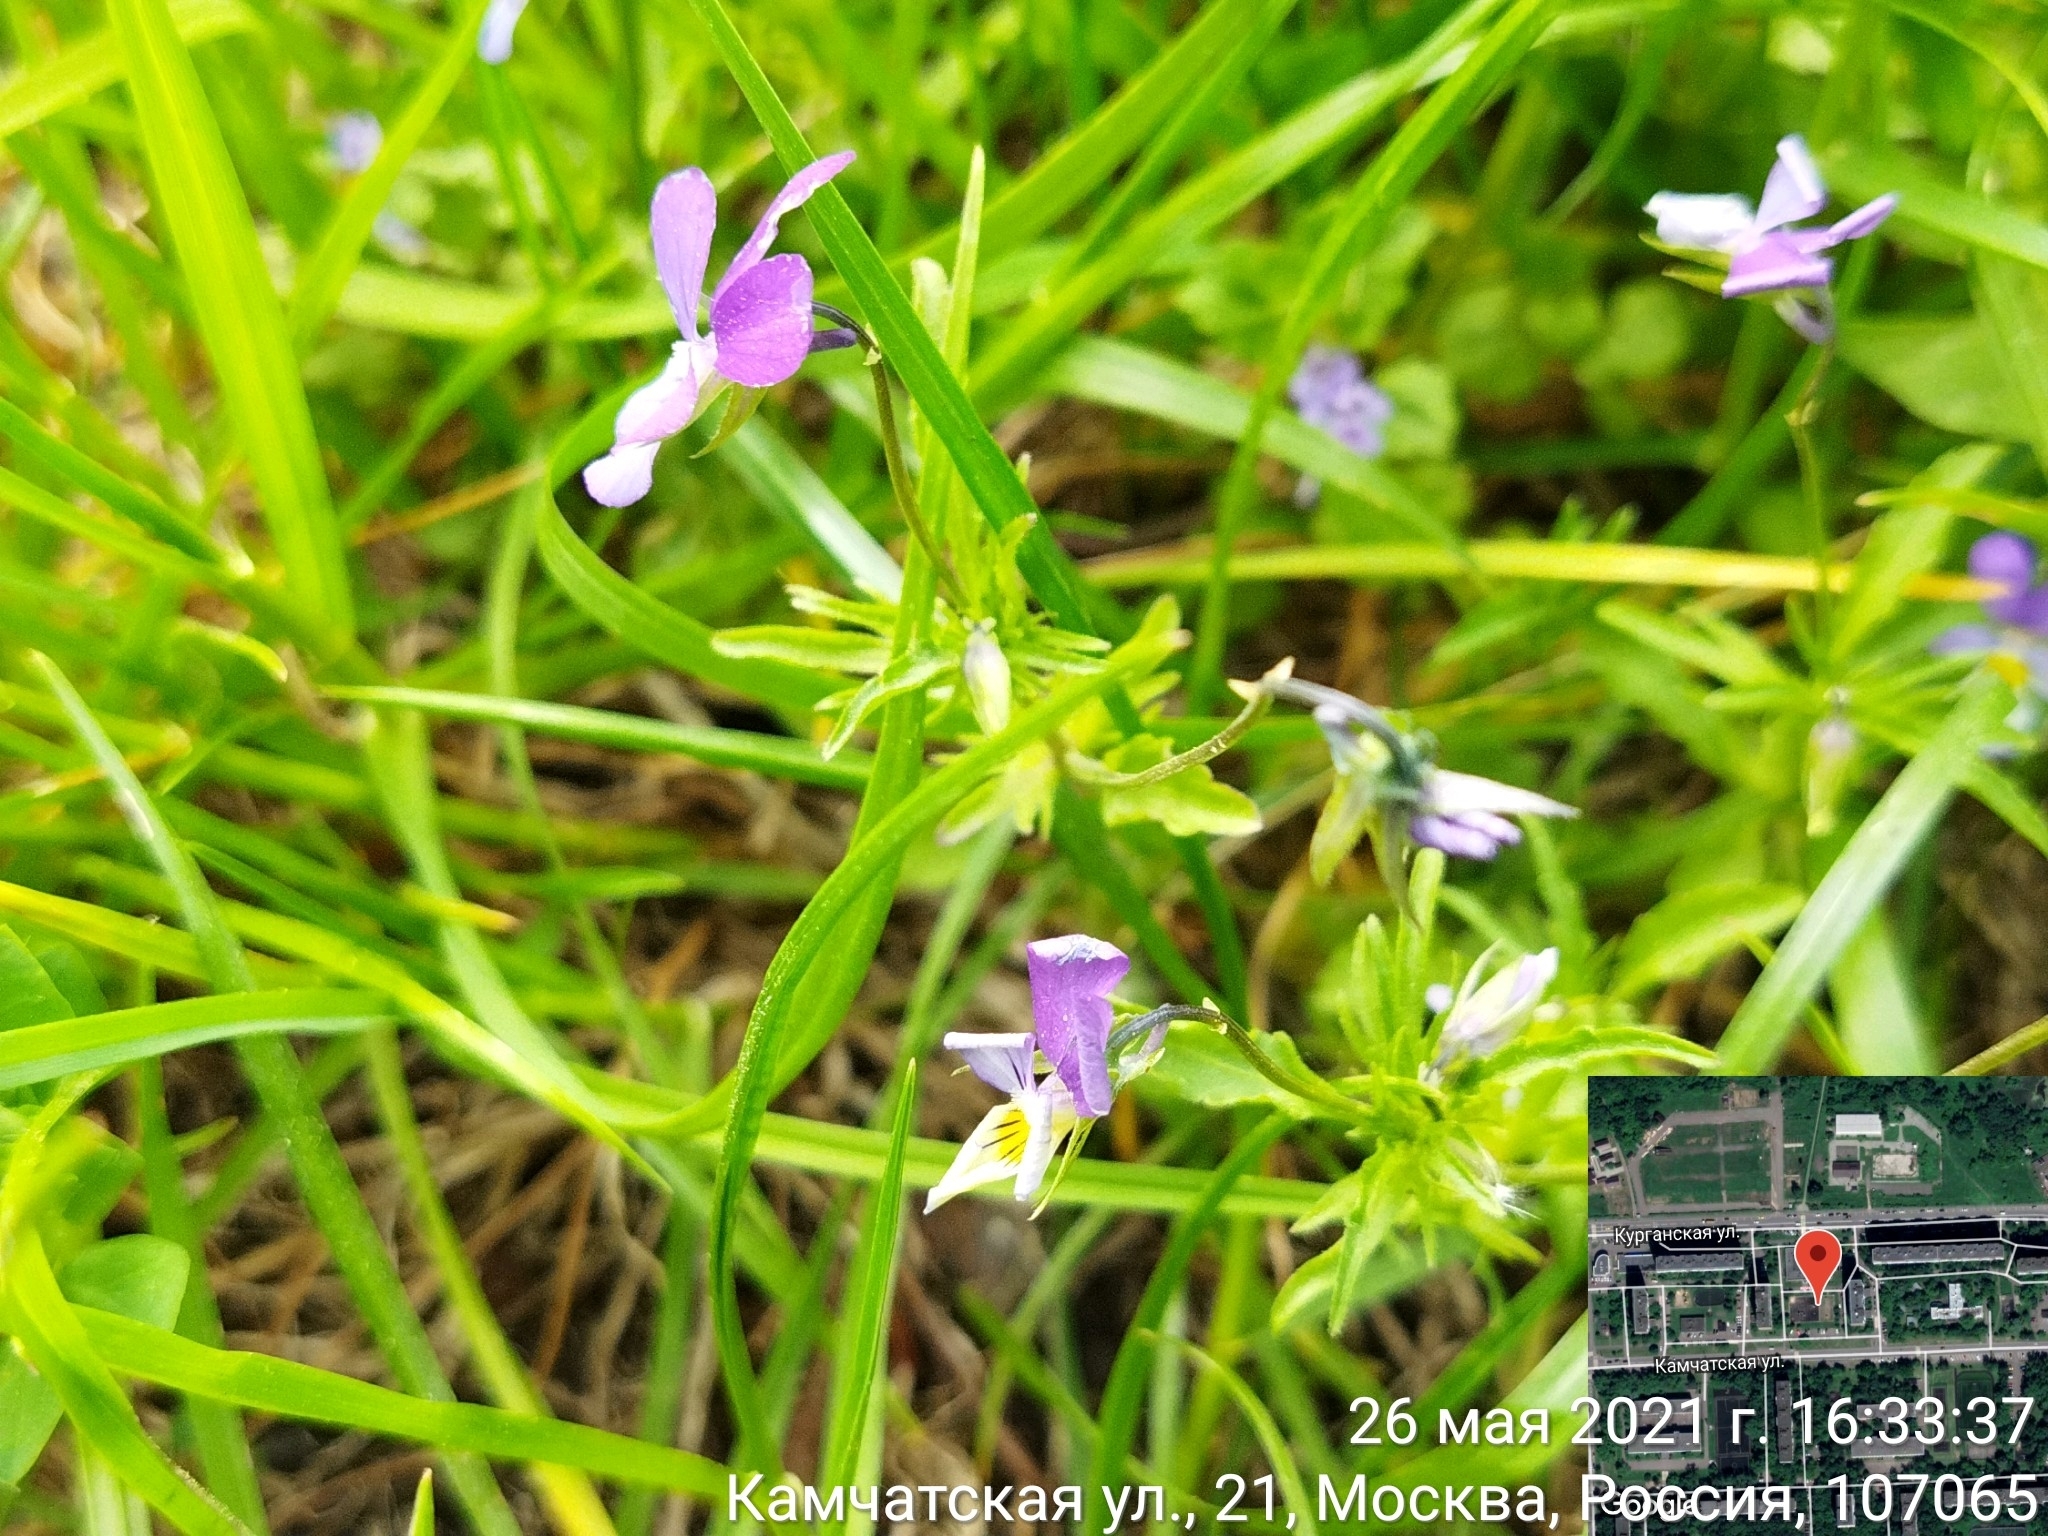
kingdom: Plantae
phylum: Tracheophyta
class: Magnoliopsida
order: Malpighiales
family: Violaceae
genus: Viola
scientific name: Viola tricolor
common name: Pansy
